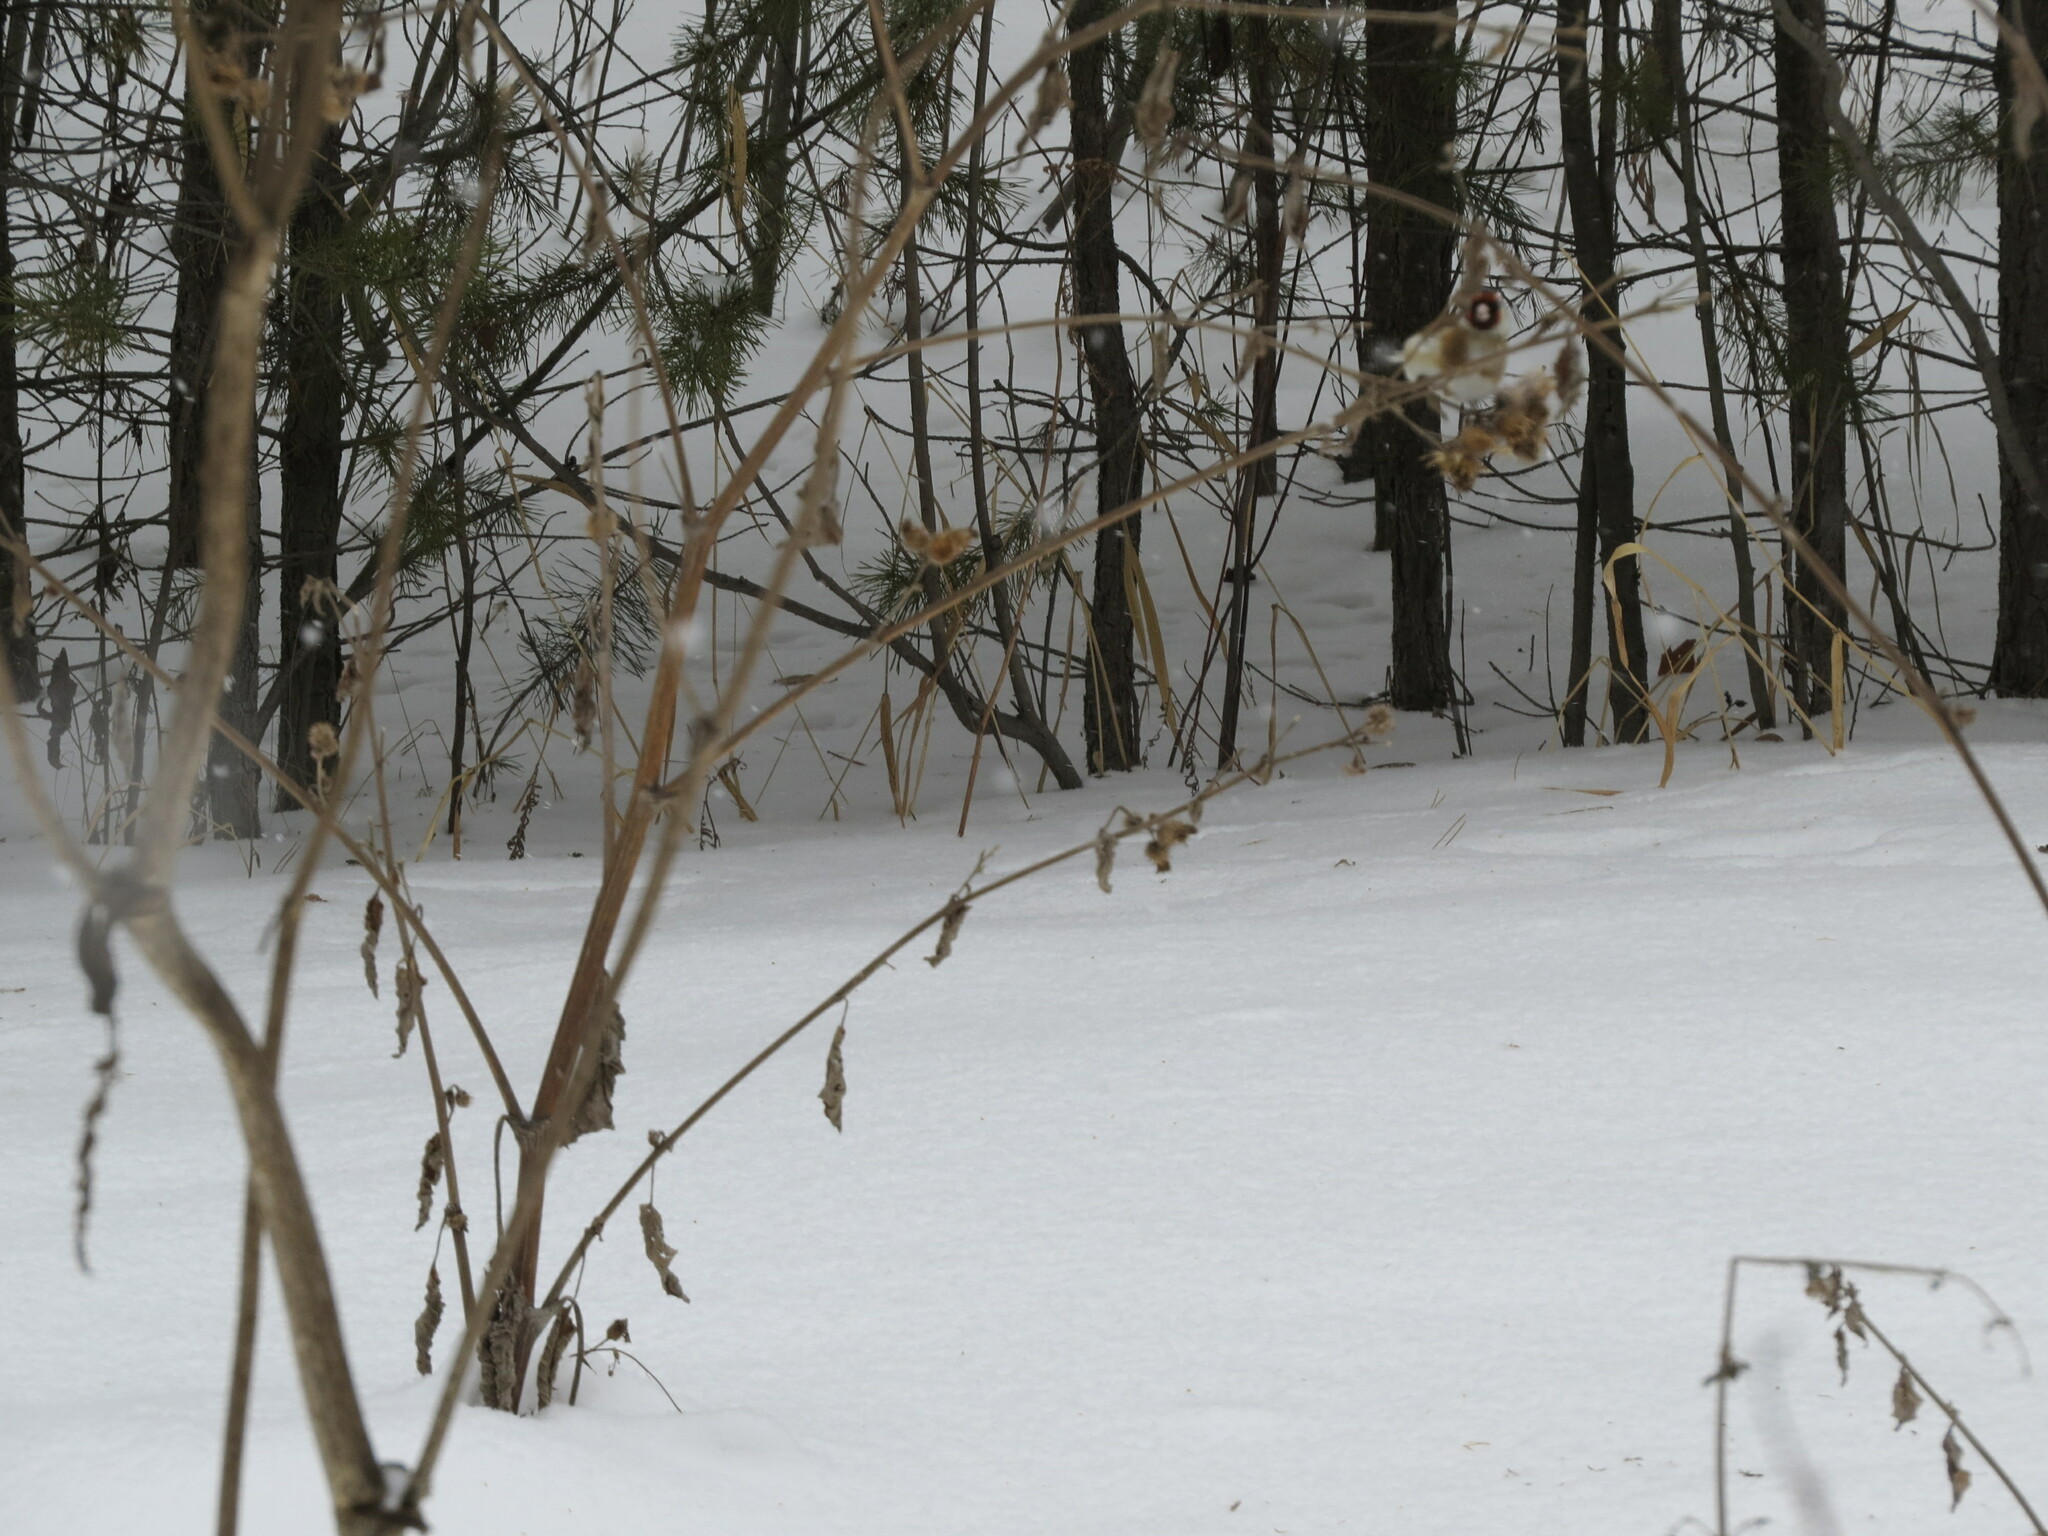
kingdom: Animalia
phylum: Chordata
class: Aves
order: Passeriformes
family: Fringillidae
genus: Carduelis
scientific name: Carduelis carduelis
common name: European goldfinch
